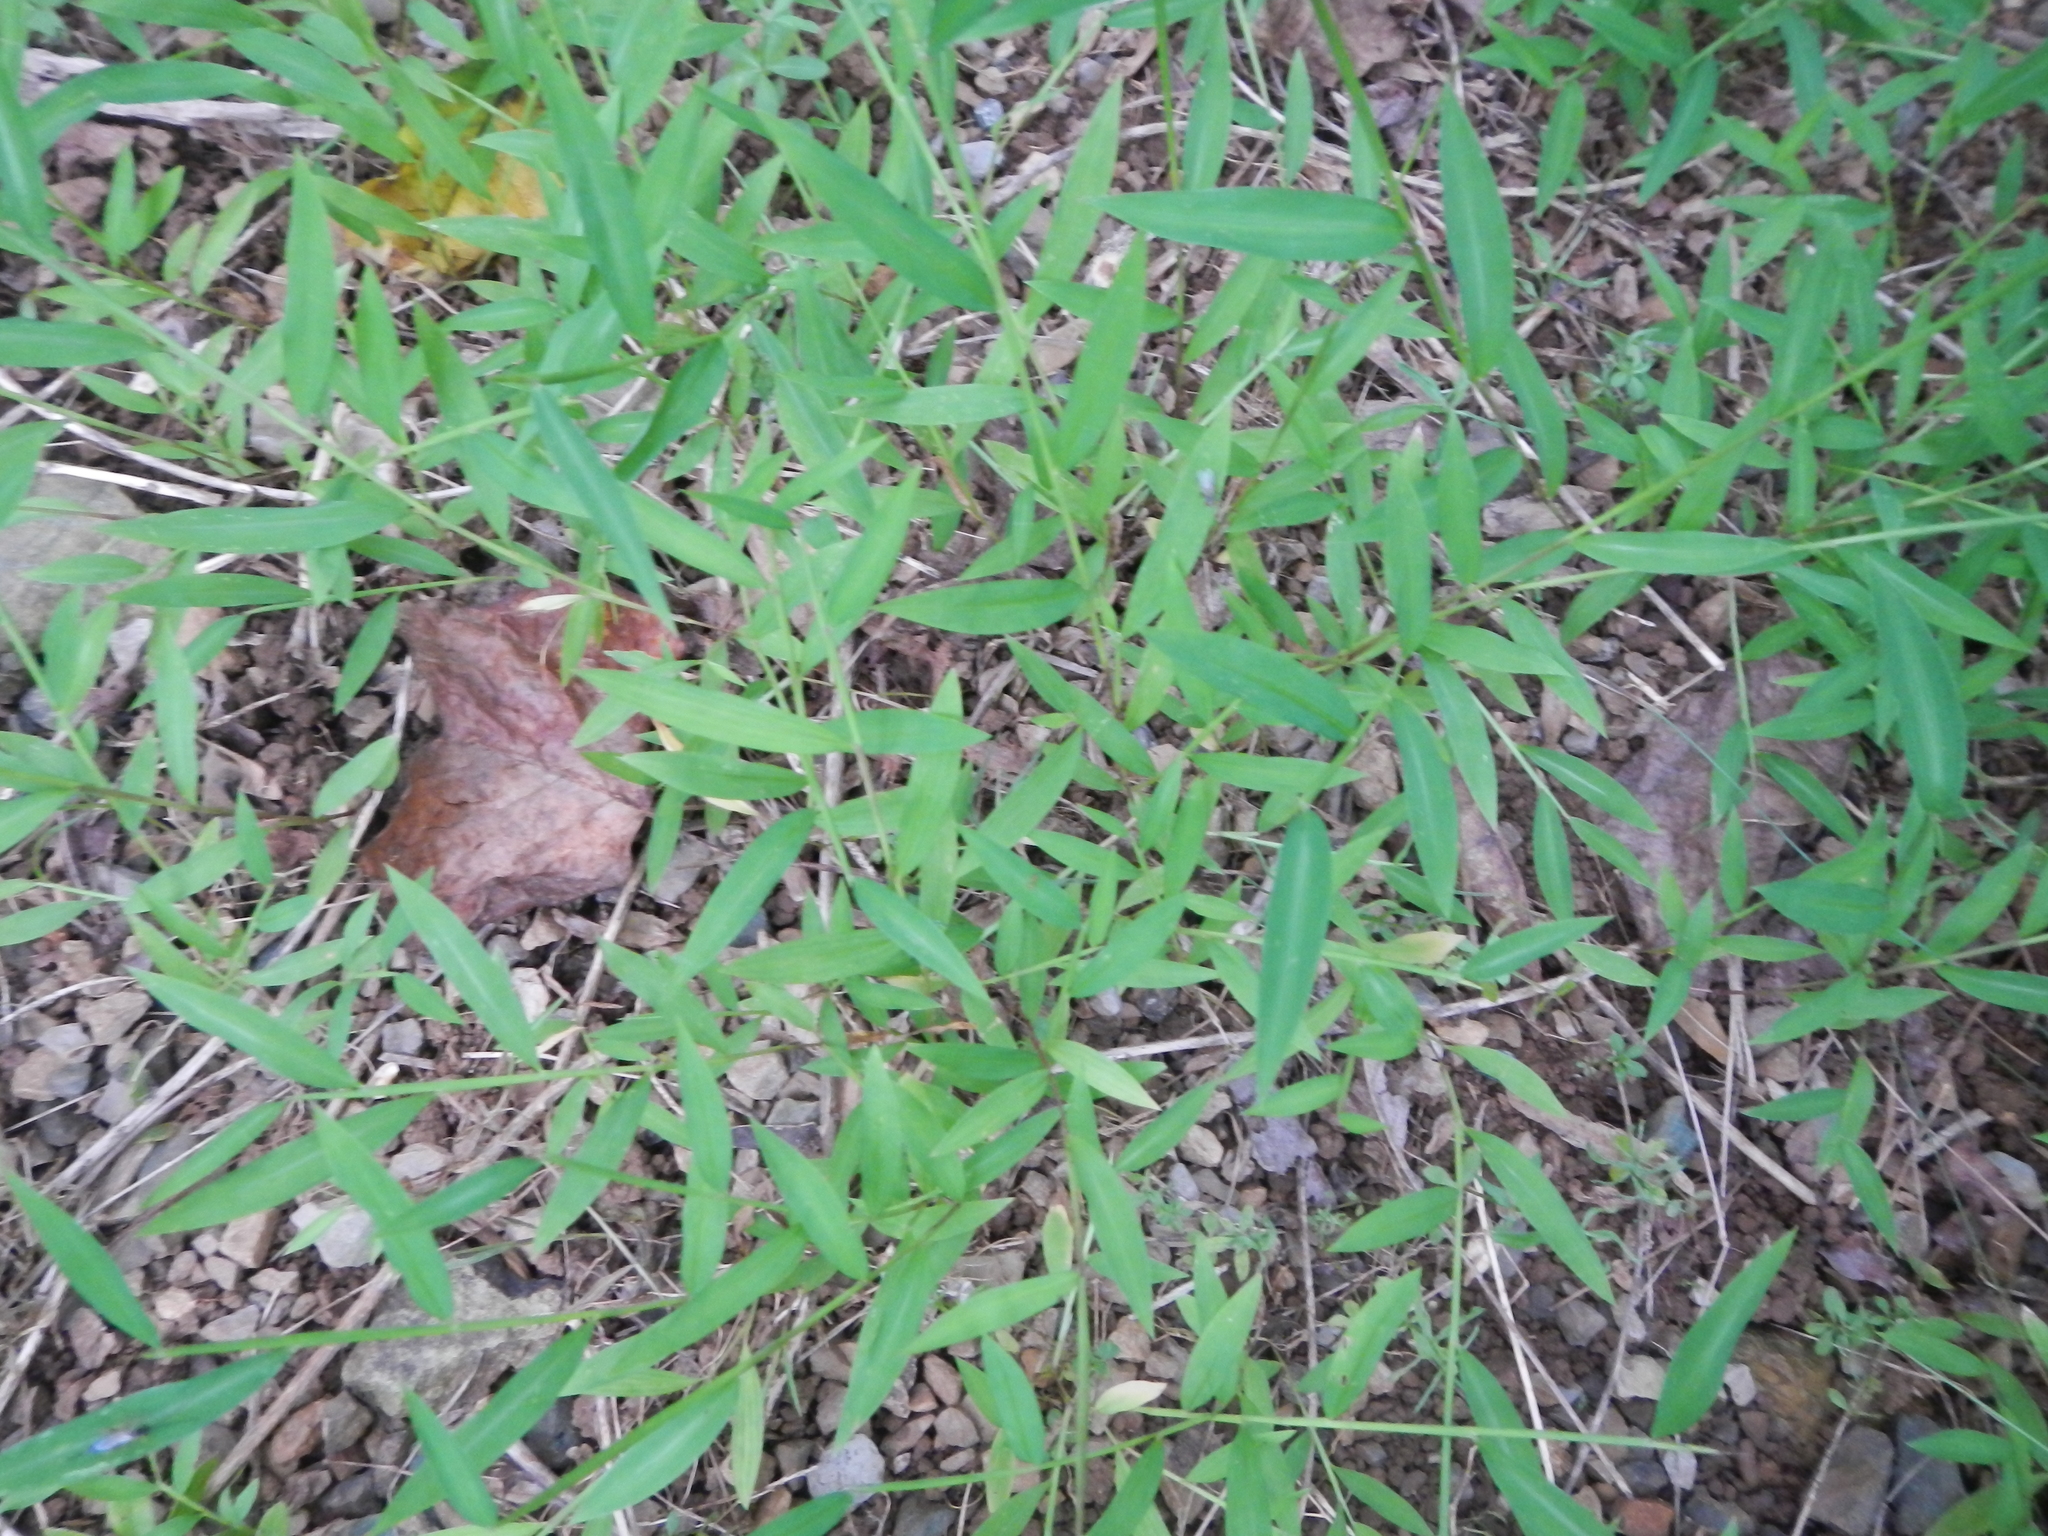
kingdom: Plantae
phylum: Tracheophyta
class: Liliopsida
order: Poales
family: Poaceae
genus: Microstegium
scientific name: Microstegium vimineum
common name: Japanese stiltgrass
